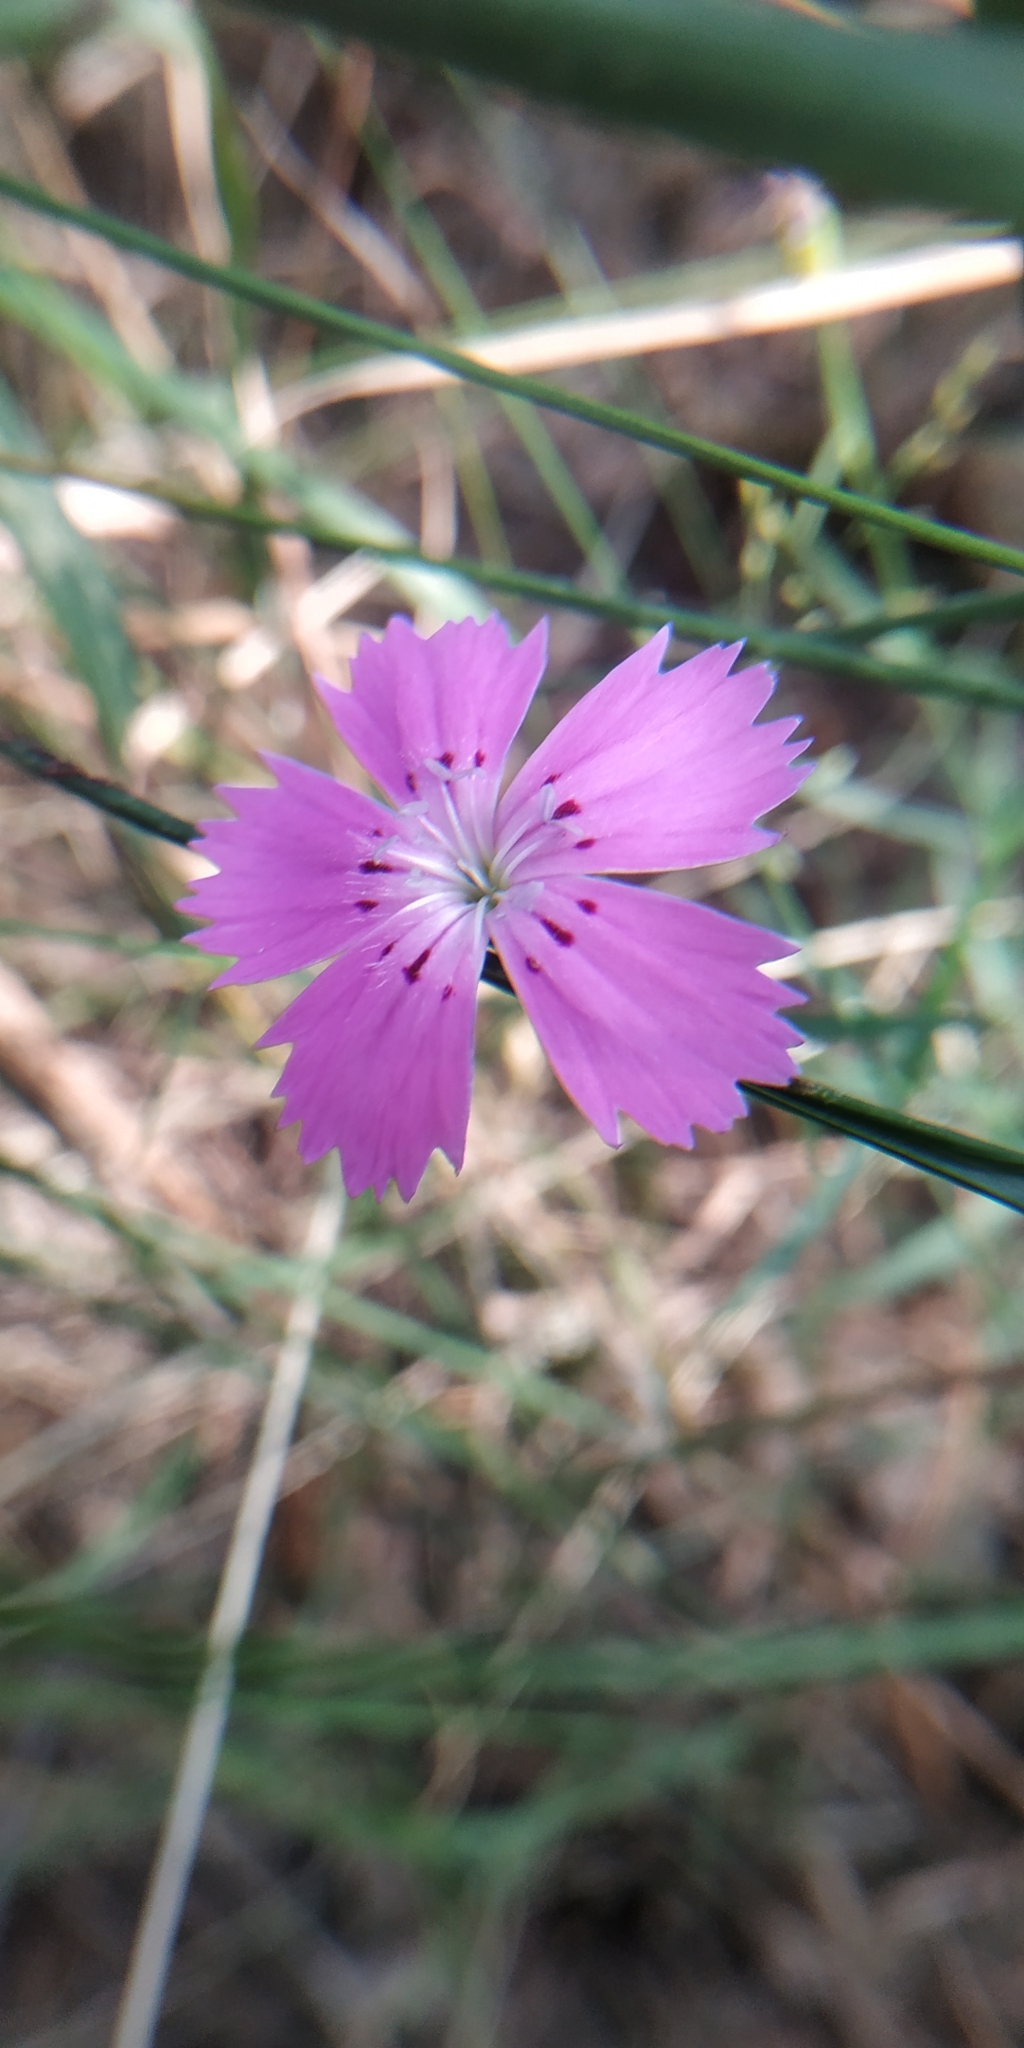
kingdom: Plantae
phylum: Tracheophyta
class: Magnoliopsida
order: Caryophyllales
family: Caryophyllaceae
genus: Dianthus
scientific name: Dianthus chinensis
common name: Rainbow pink
